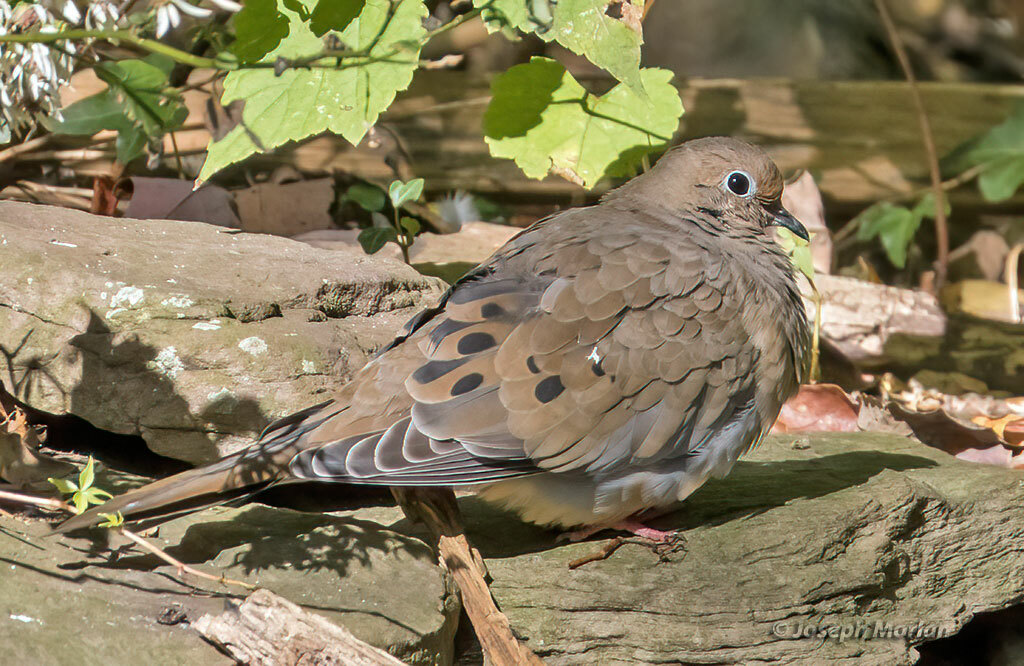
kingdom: Animalia
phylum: Chordata
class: Aves
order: Columbiformes
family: Columbidae
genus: Zenaida
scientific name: Zenaida macroura
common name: Mourning dove
